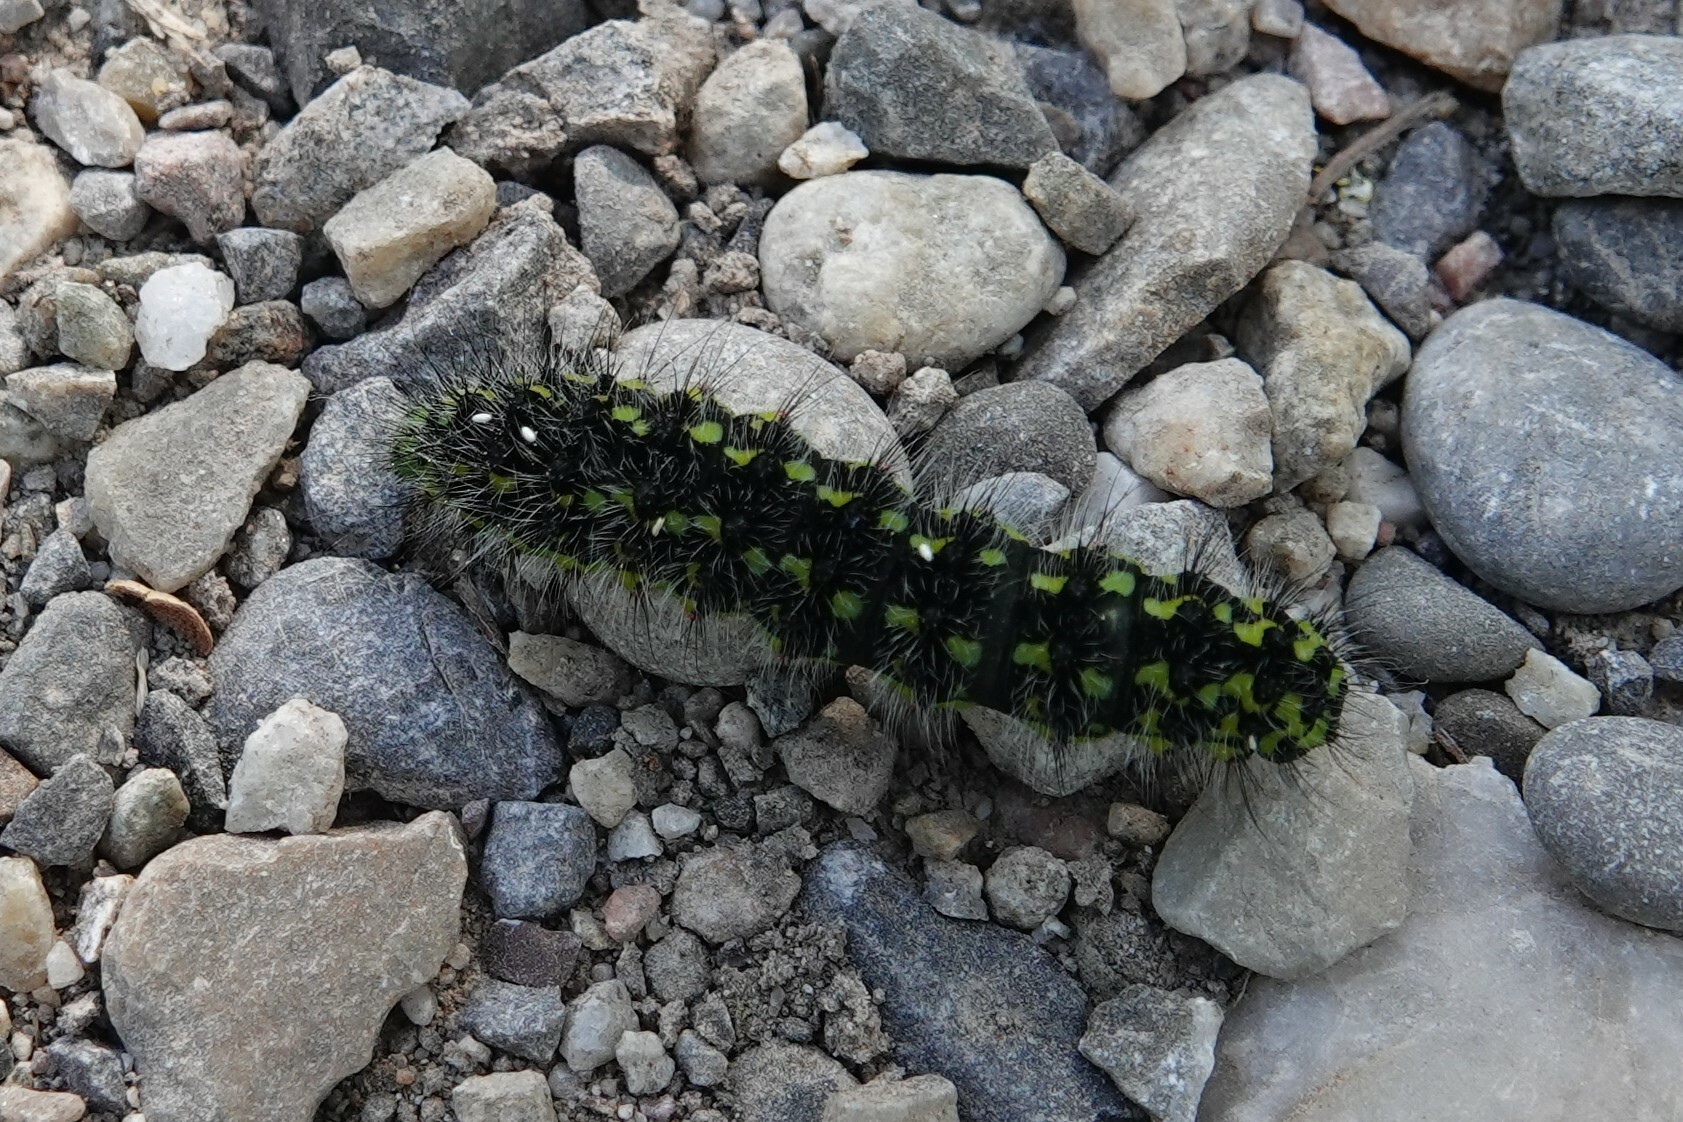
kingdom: Animalia
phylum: Arthropoda
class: Insecta
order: Lepidoptera
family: Saturniidae
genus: Saturnia
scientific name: Saturnia pavonia
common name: Emperor moth
